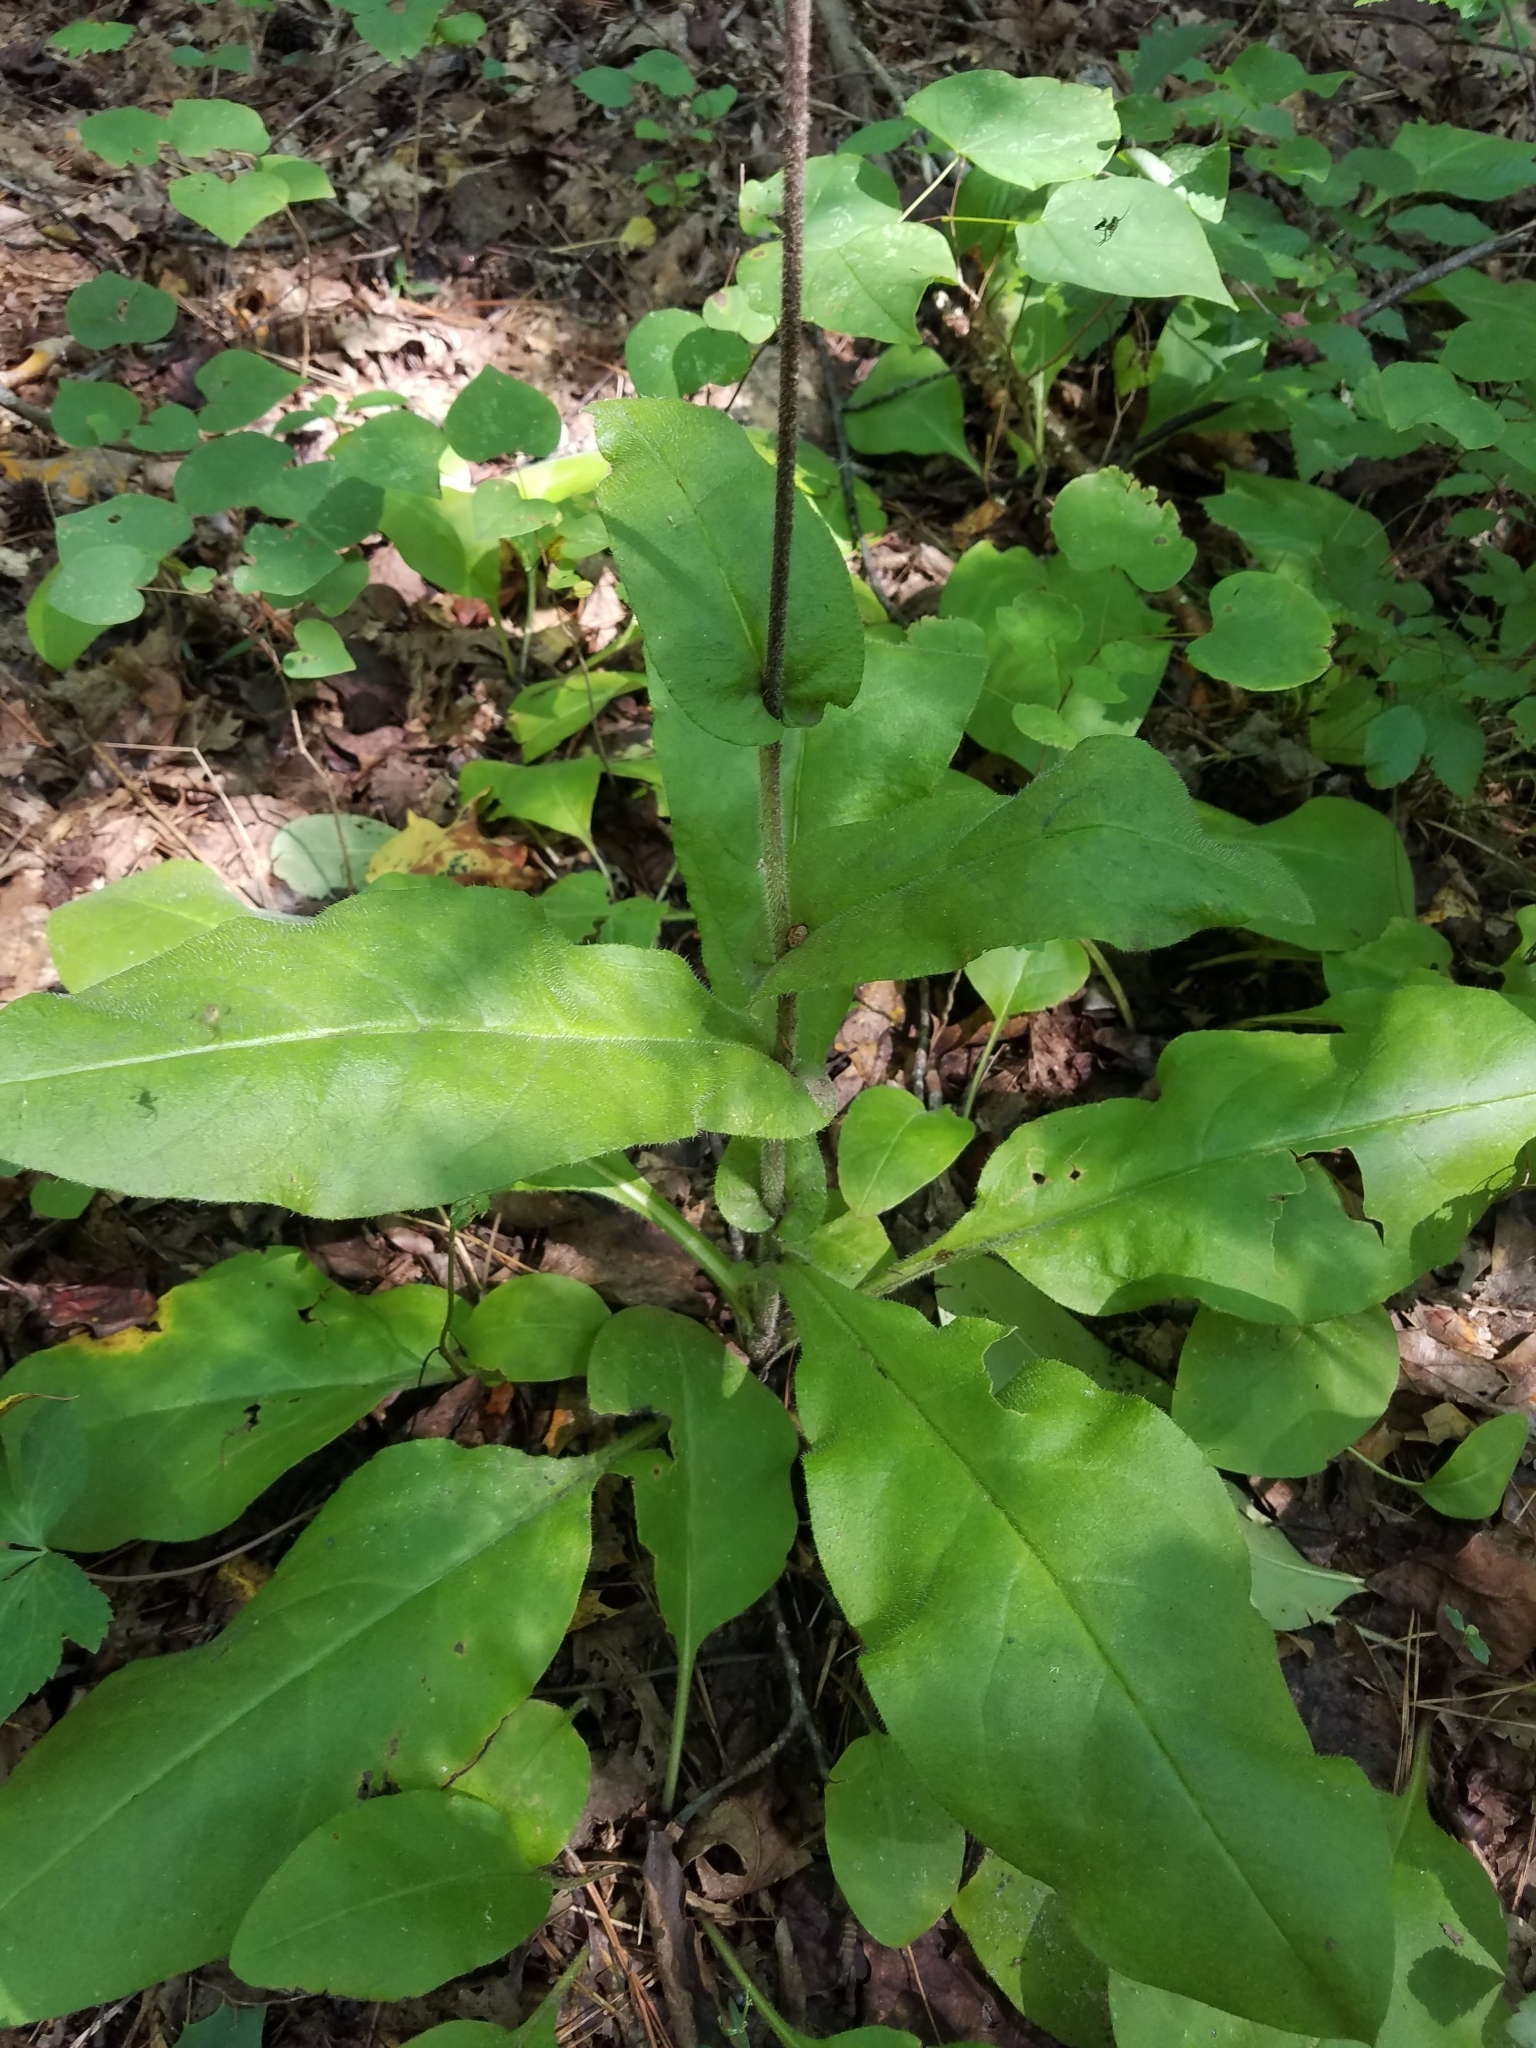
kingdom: Plantae
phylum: Tracheophyta
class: Magnoliopsida
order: Boraginales
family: Boraginaceae
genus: Andersonglossum
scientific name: Andersonglossum virginianum
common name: Wild comfrey
